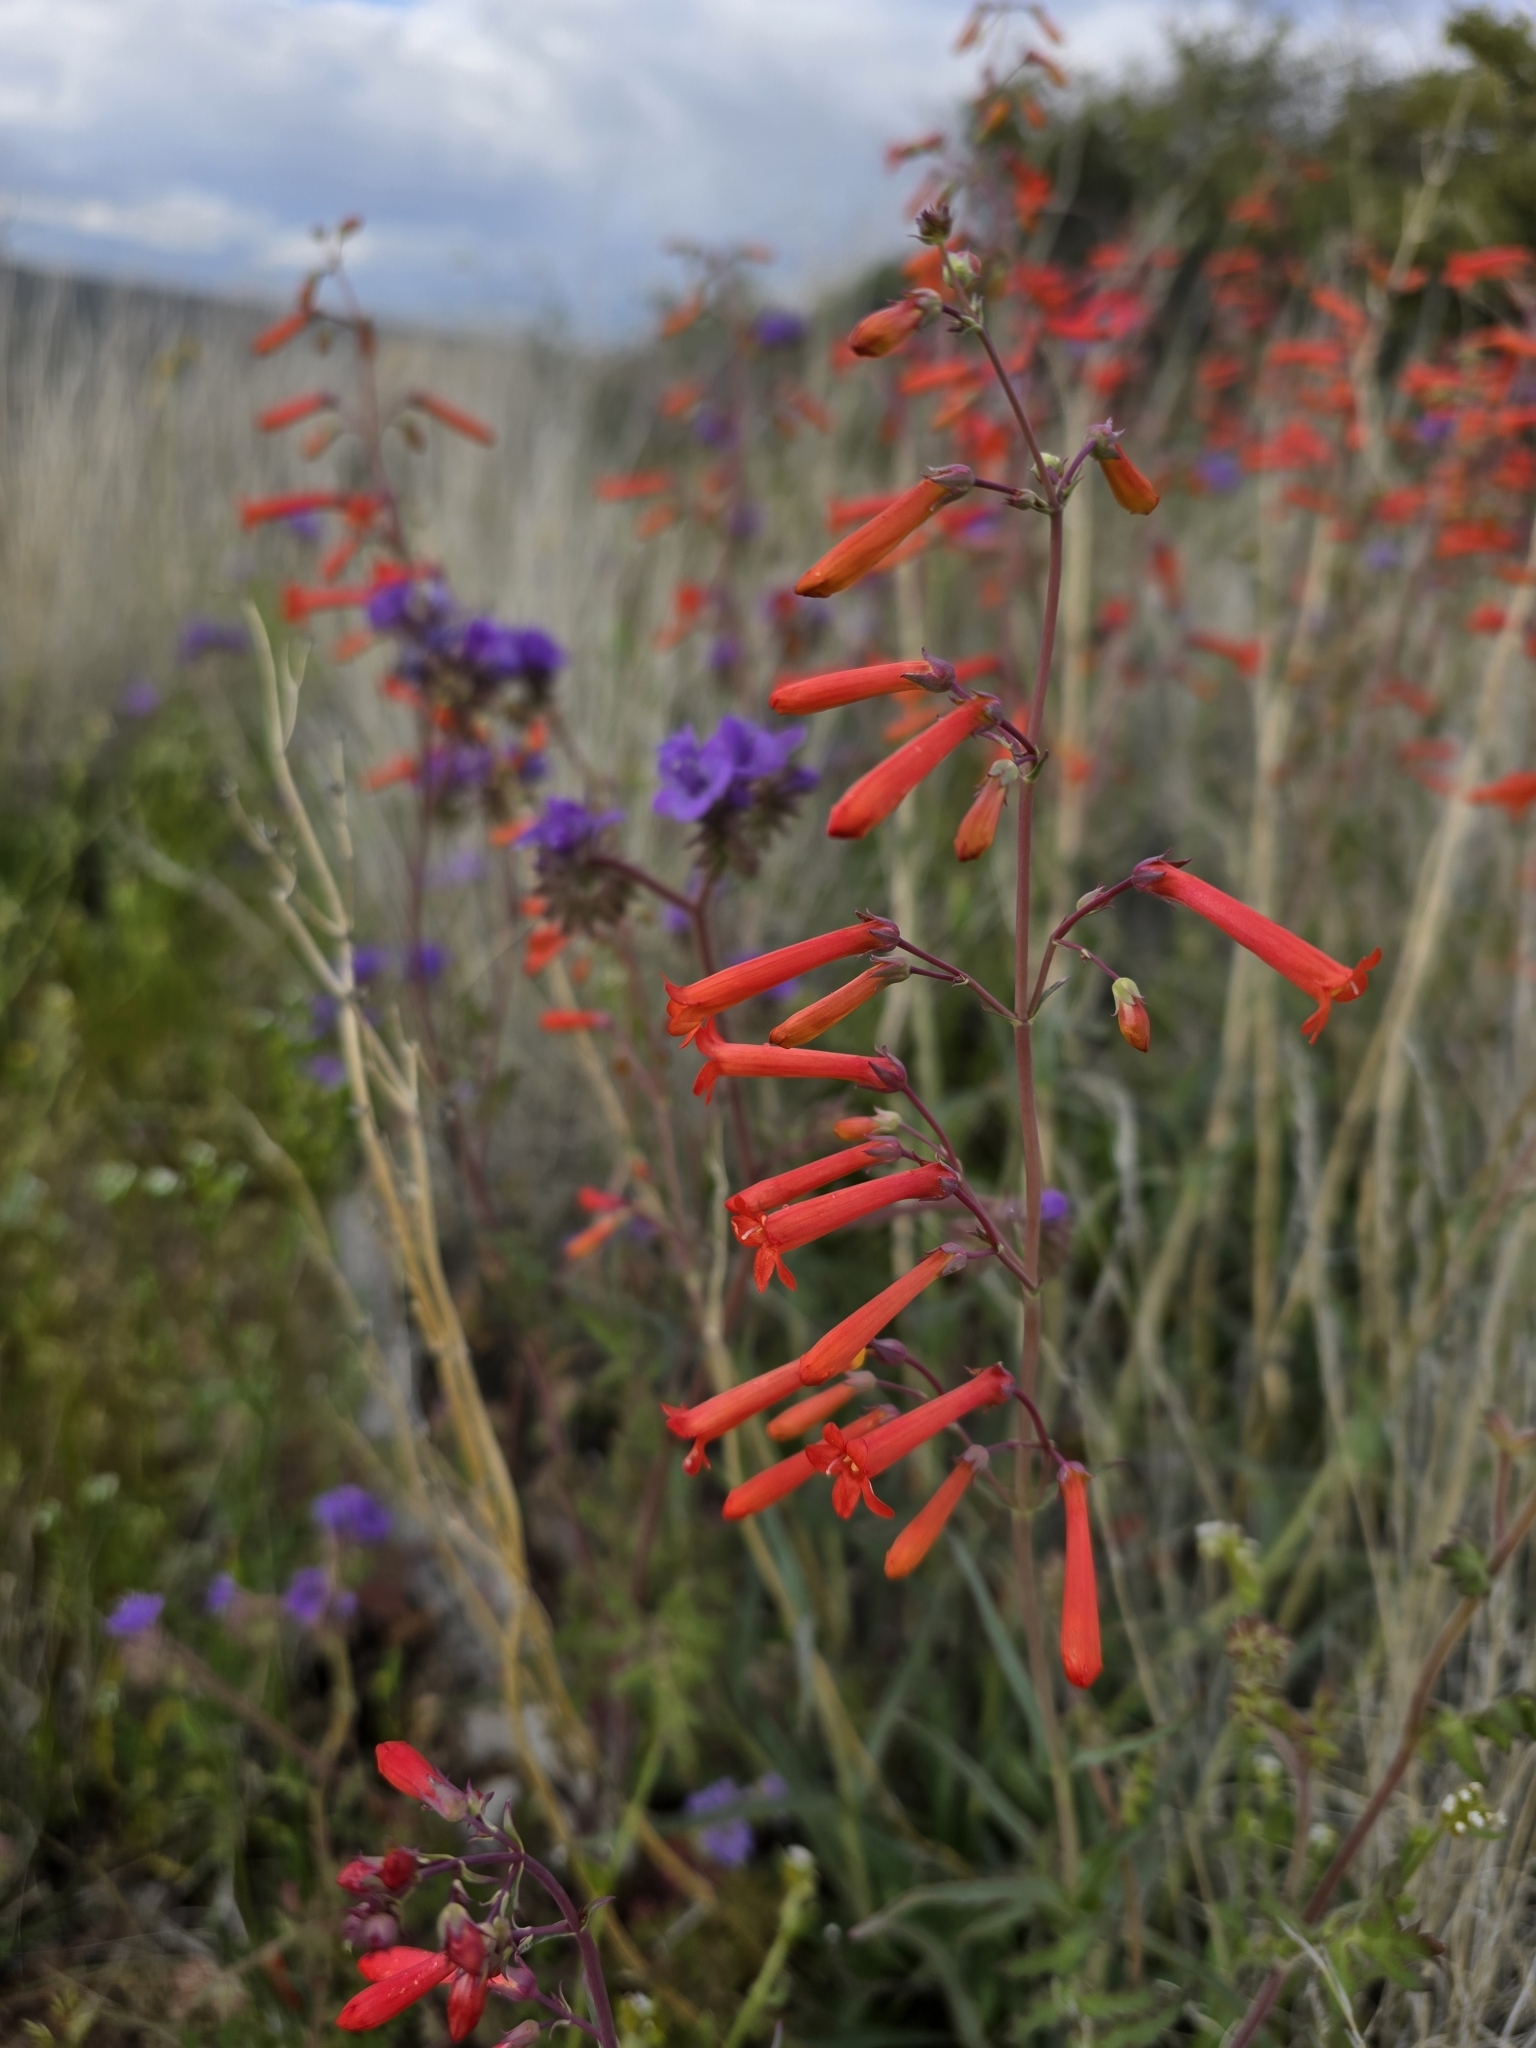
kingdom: Plantae
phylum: Tracheophyta
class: Magnoliopsida
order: Lamiales
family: Plantaginaceae
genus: Penstemon
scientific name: Penstemon subulatus
